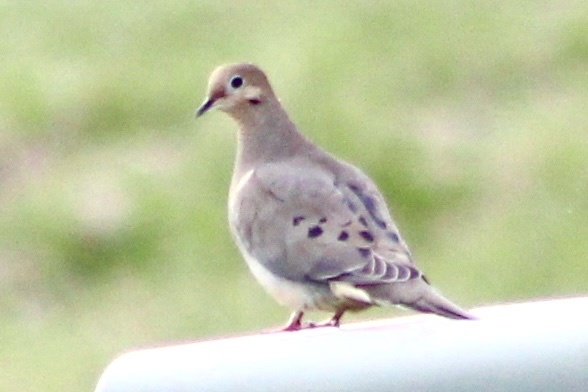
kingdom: Animalia
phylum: Chordata
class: Aves
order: Columbiformes
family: Columbidae
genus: Zenaida
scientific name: Zenaida macroura
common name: Mourning dove
